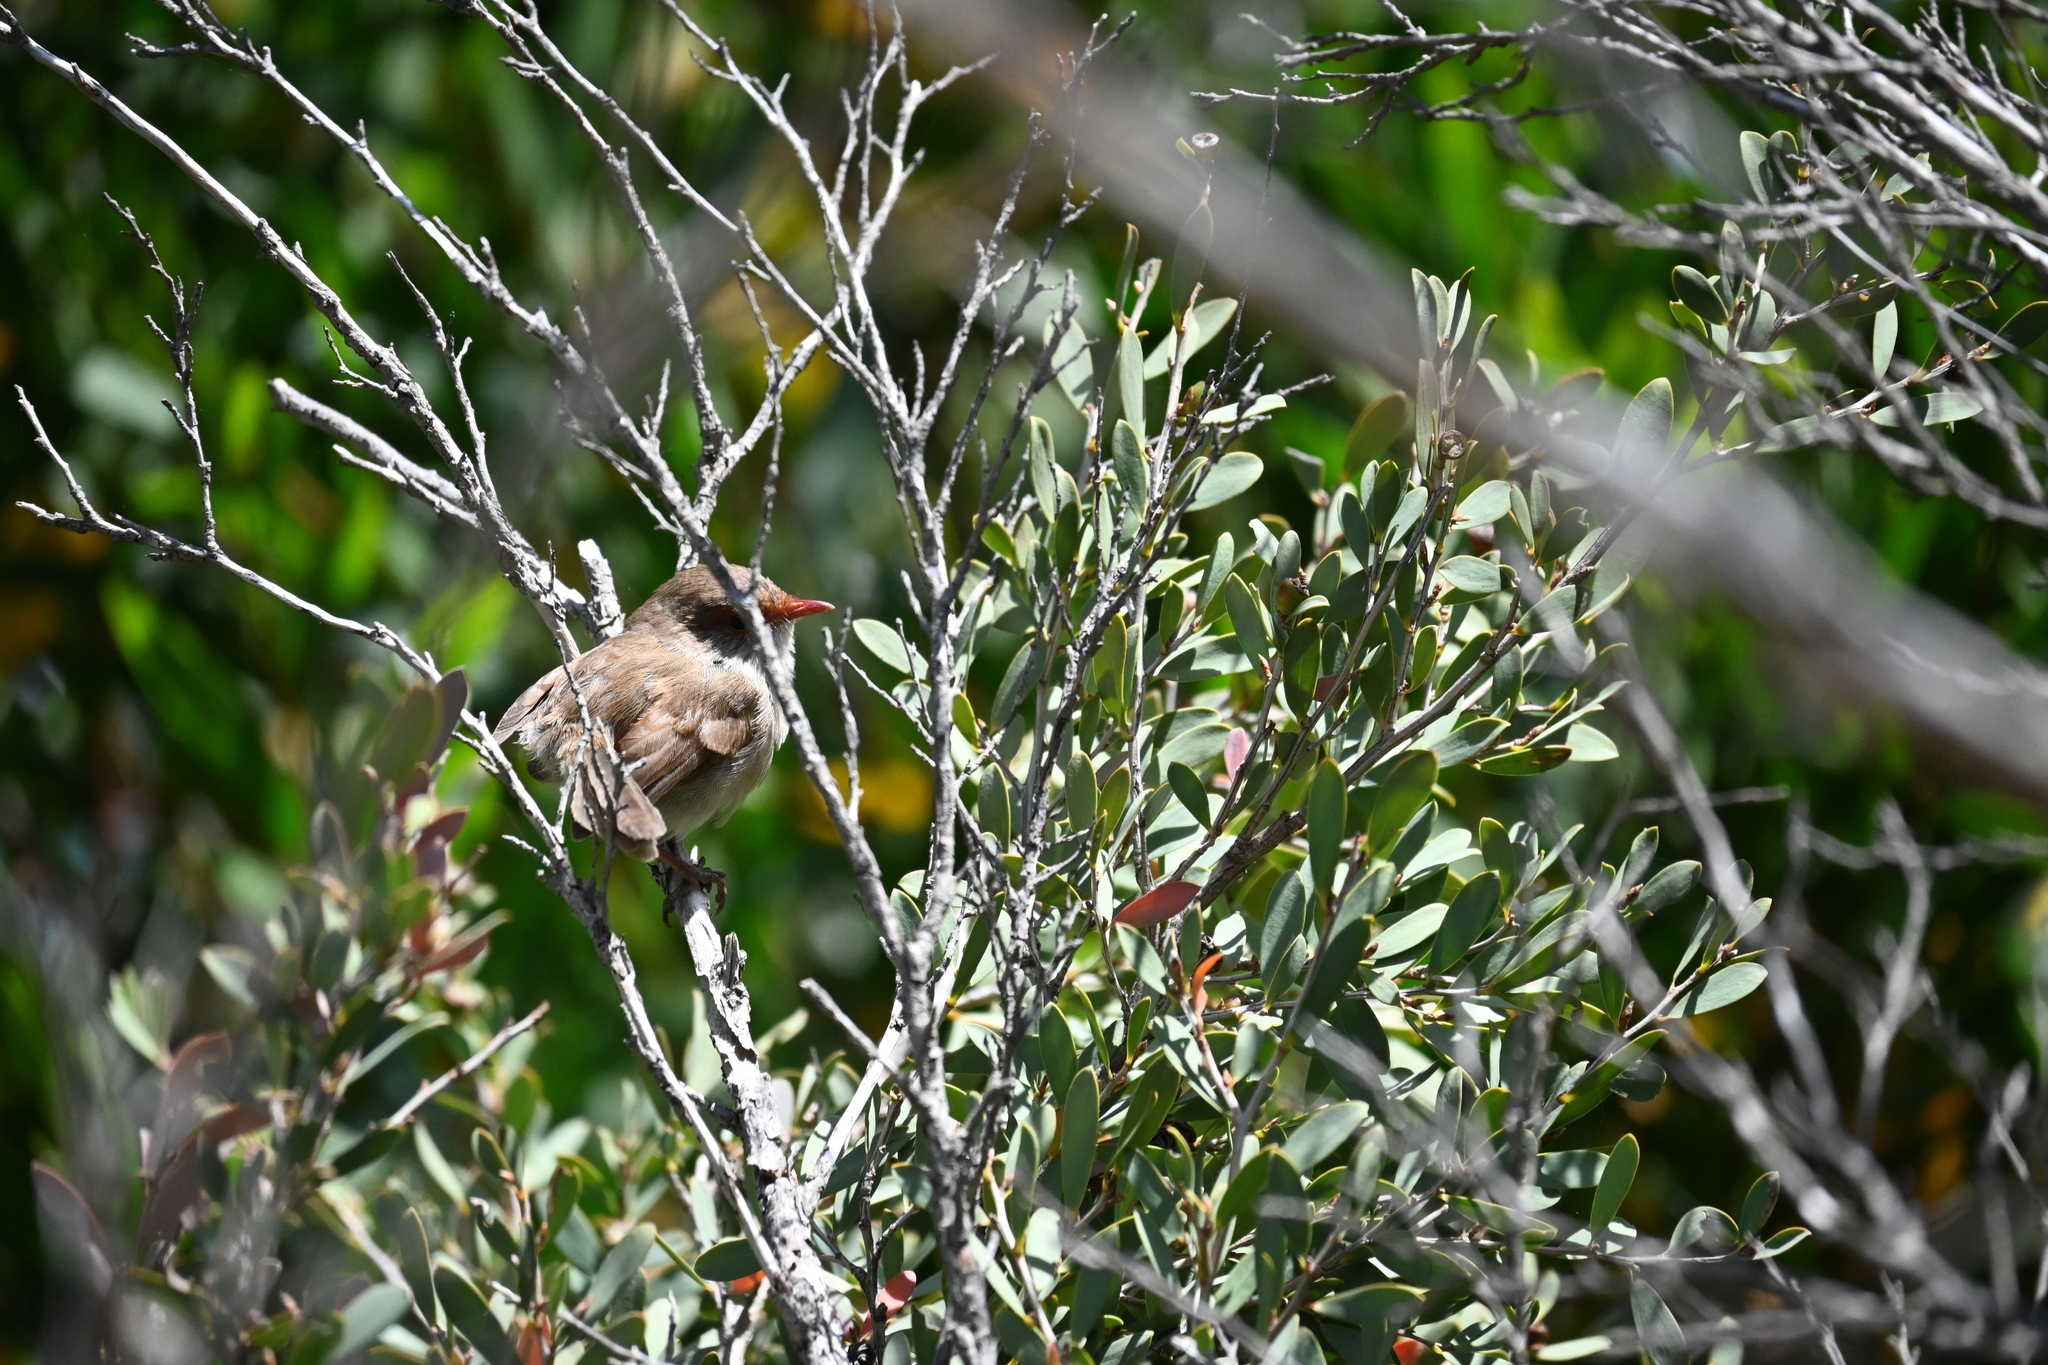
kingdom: Animalia
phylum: Chordata
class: Aves
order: Passeriformes
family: Maluridae
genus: Malurus
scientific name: Malurus cyaneus
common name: Superb fairywren
